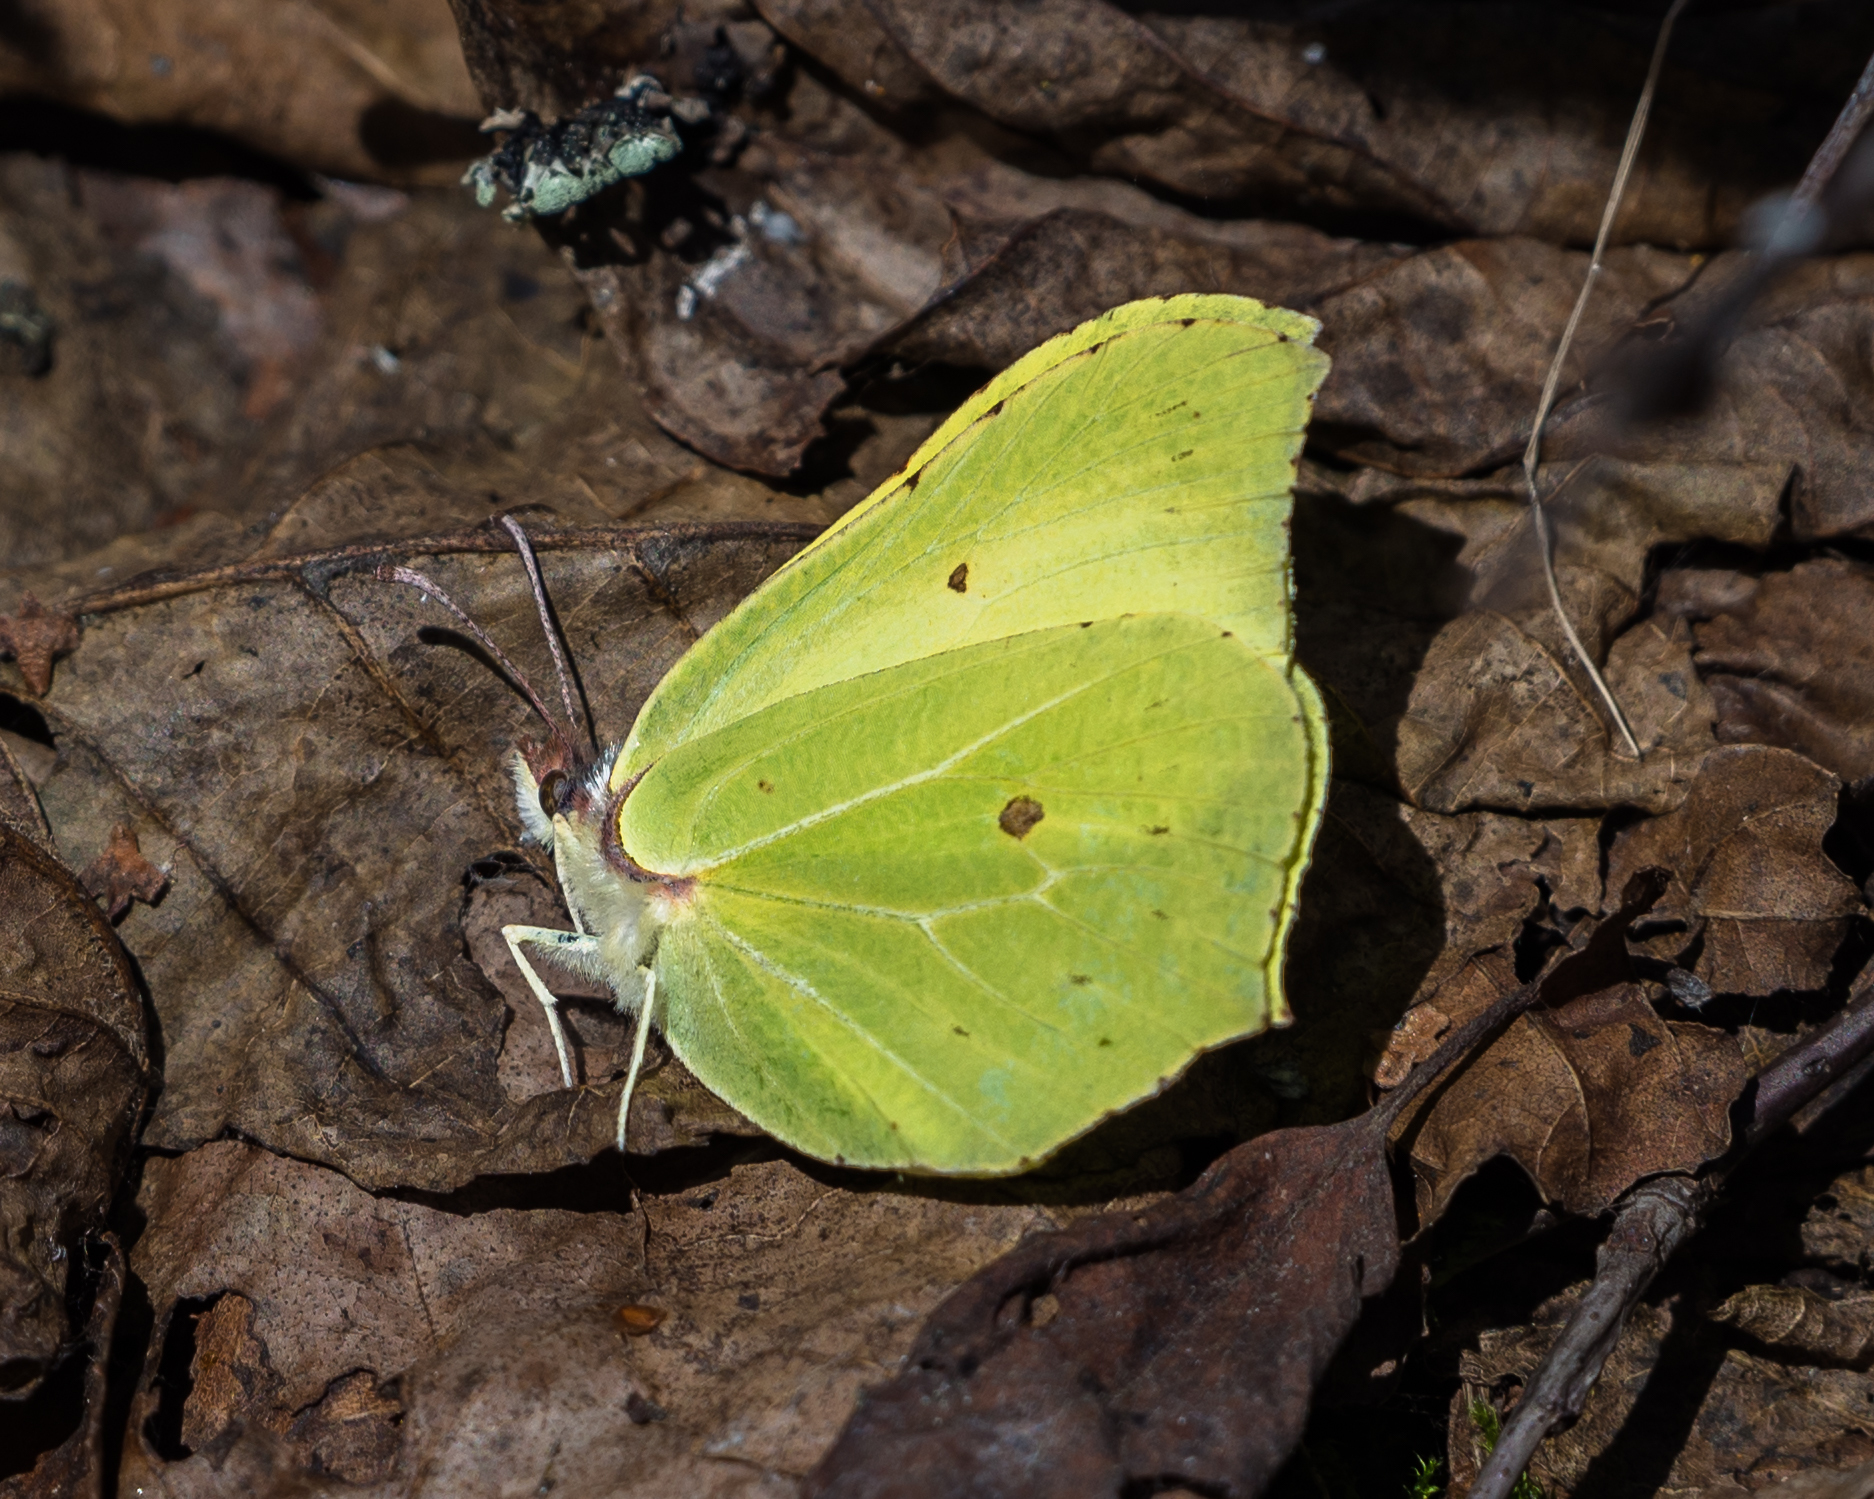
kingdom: Animalia
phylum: Arthropoda
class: Insecta
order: Lepidoptera
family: Pieridae
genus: Gonepteryx
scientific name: Gonepteryx rhamni
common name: Brimstone
